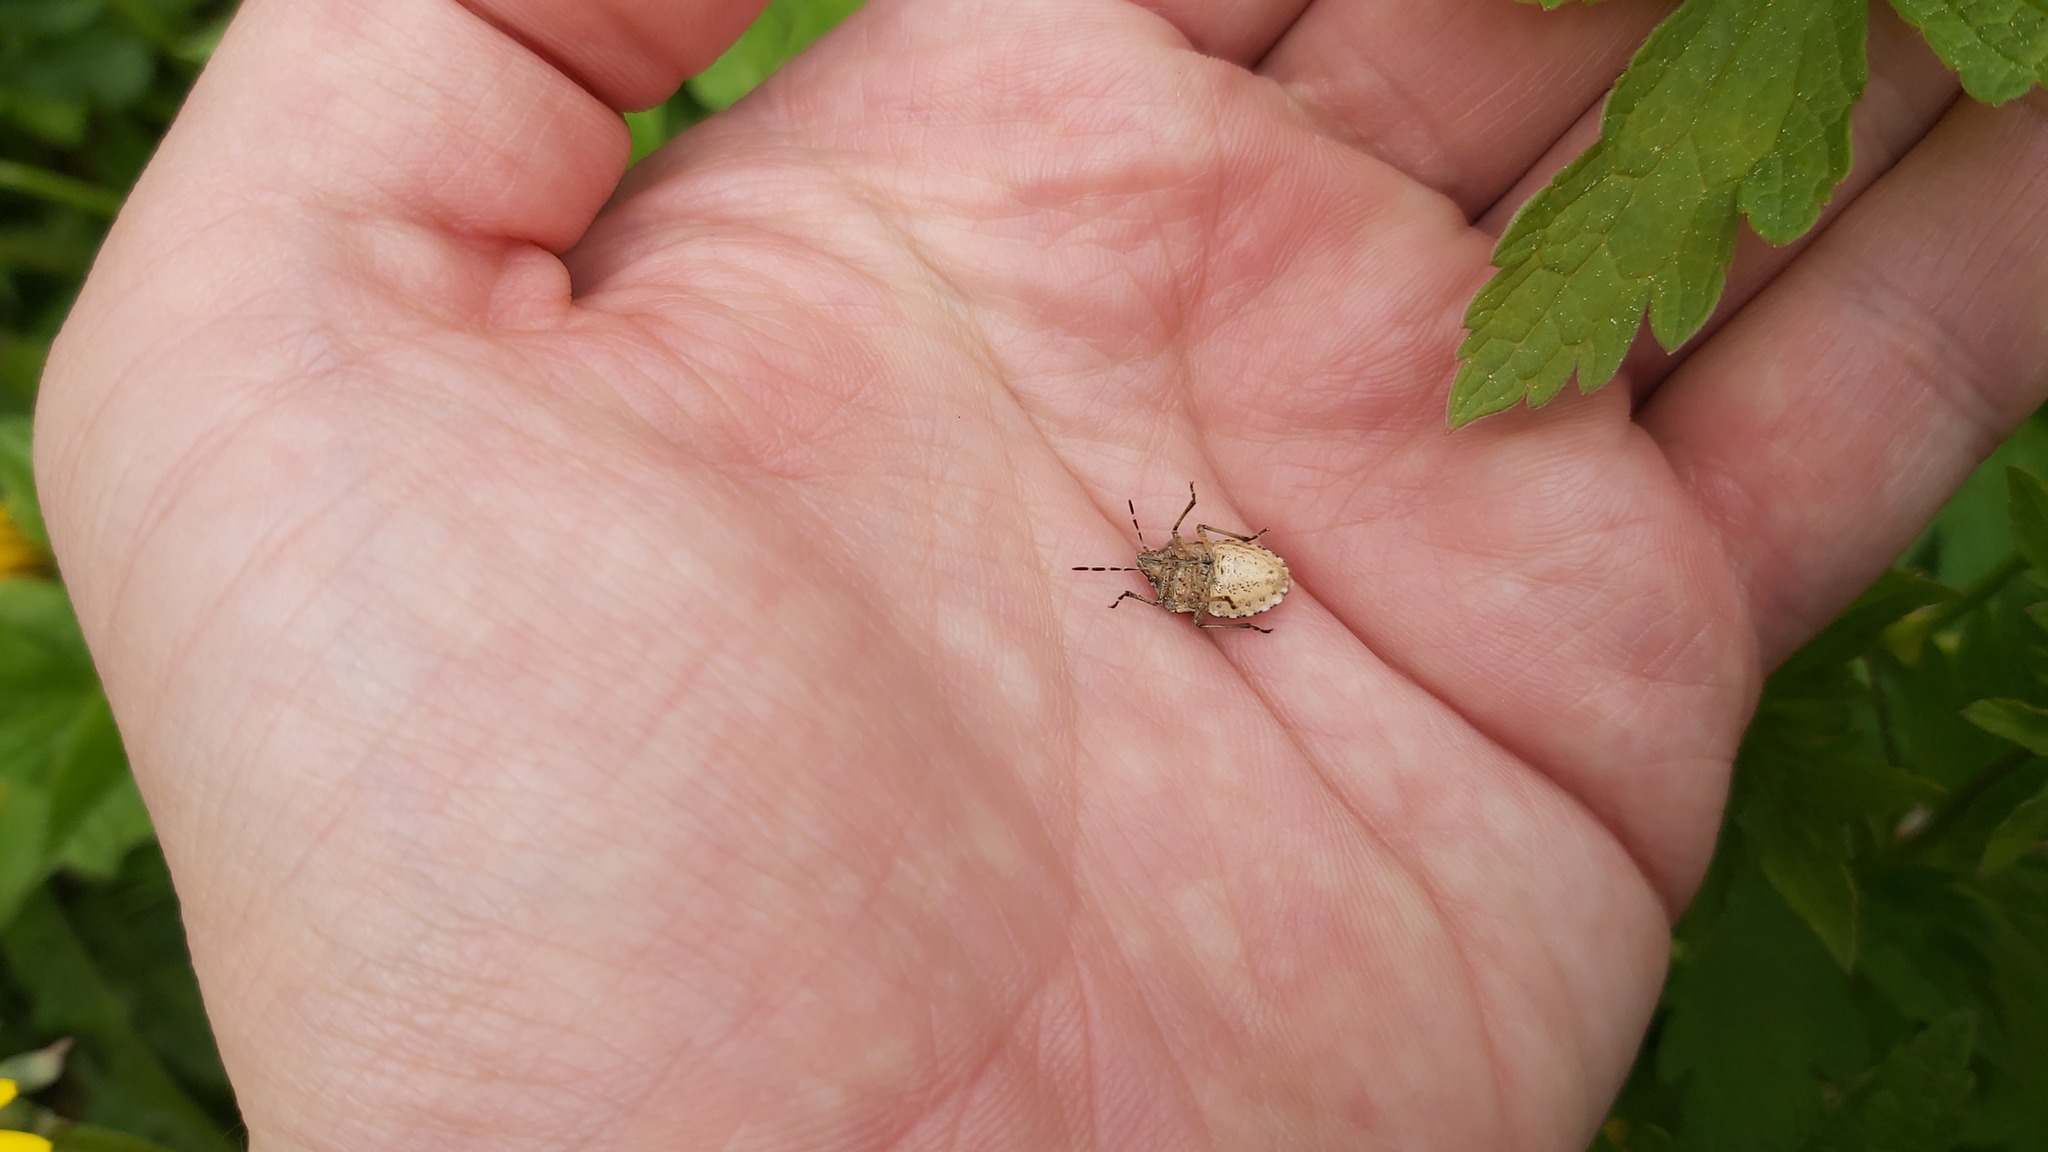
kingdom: Animalia
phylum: Arthropoda
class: Insecta
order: Hemiptera
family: Pentatomidae
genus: Dolycoris
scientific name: Dolycoris baccarum
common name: Sloe bug
